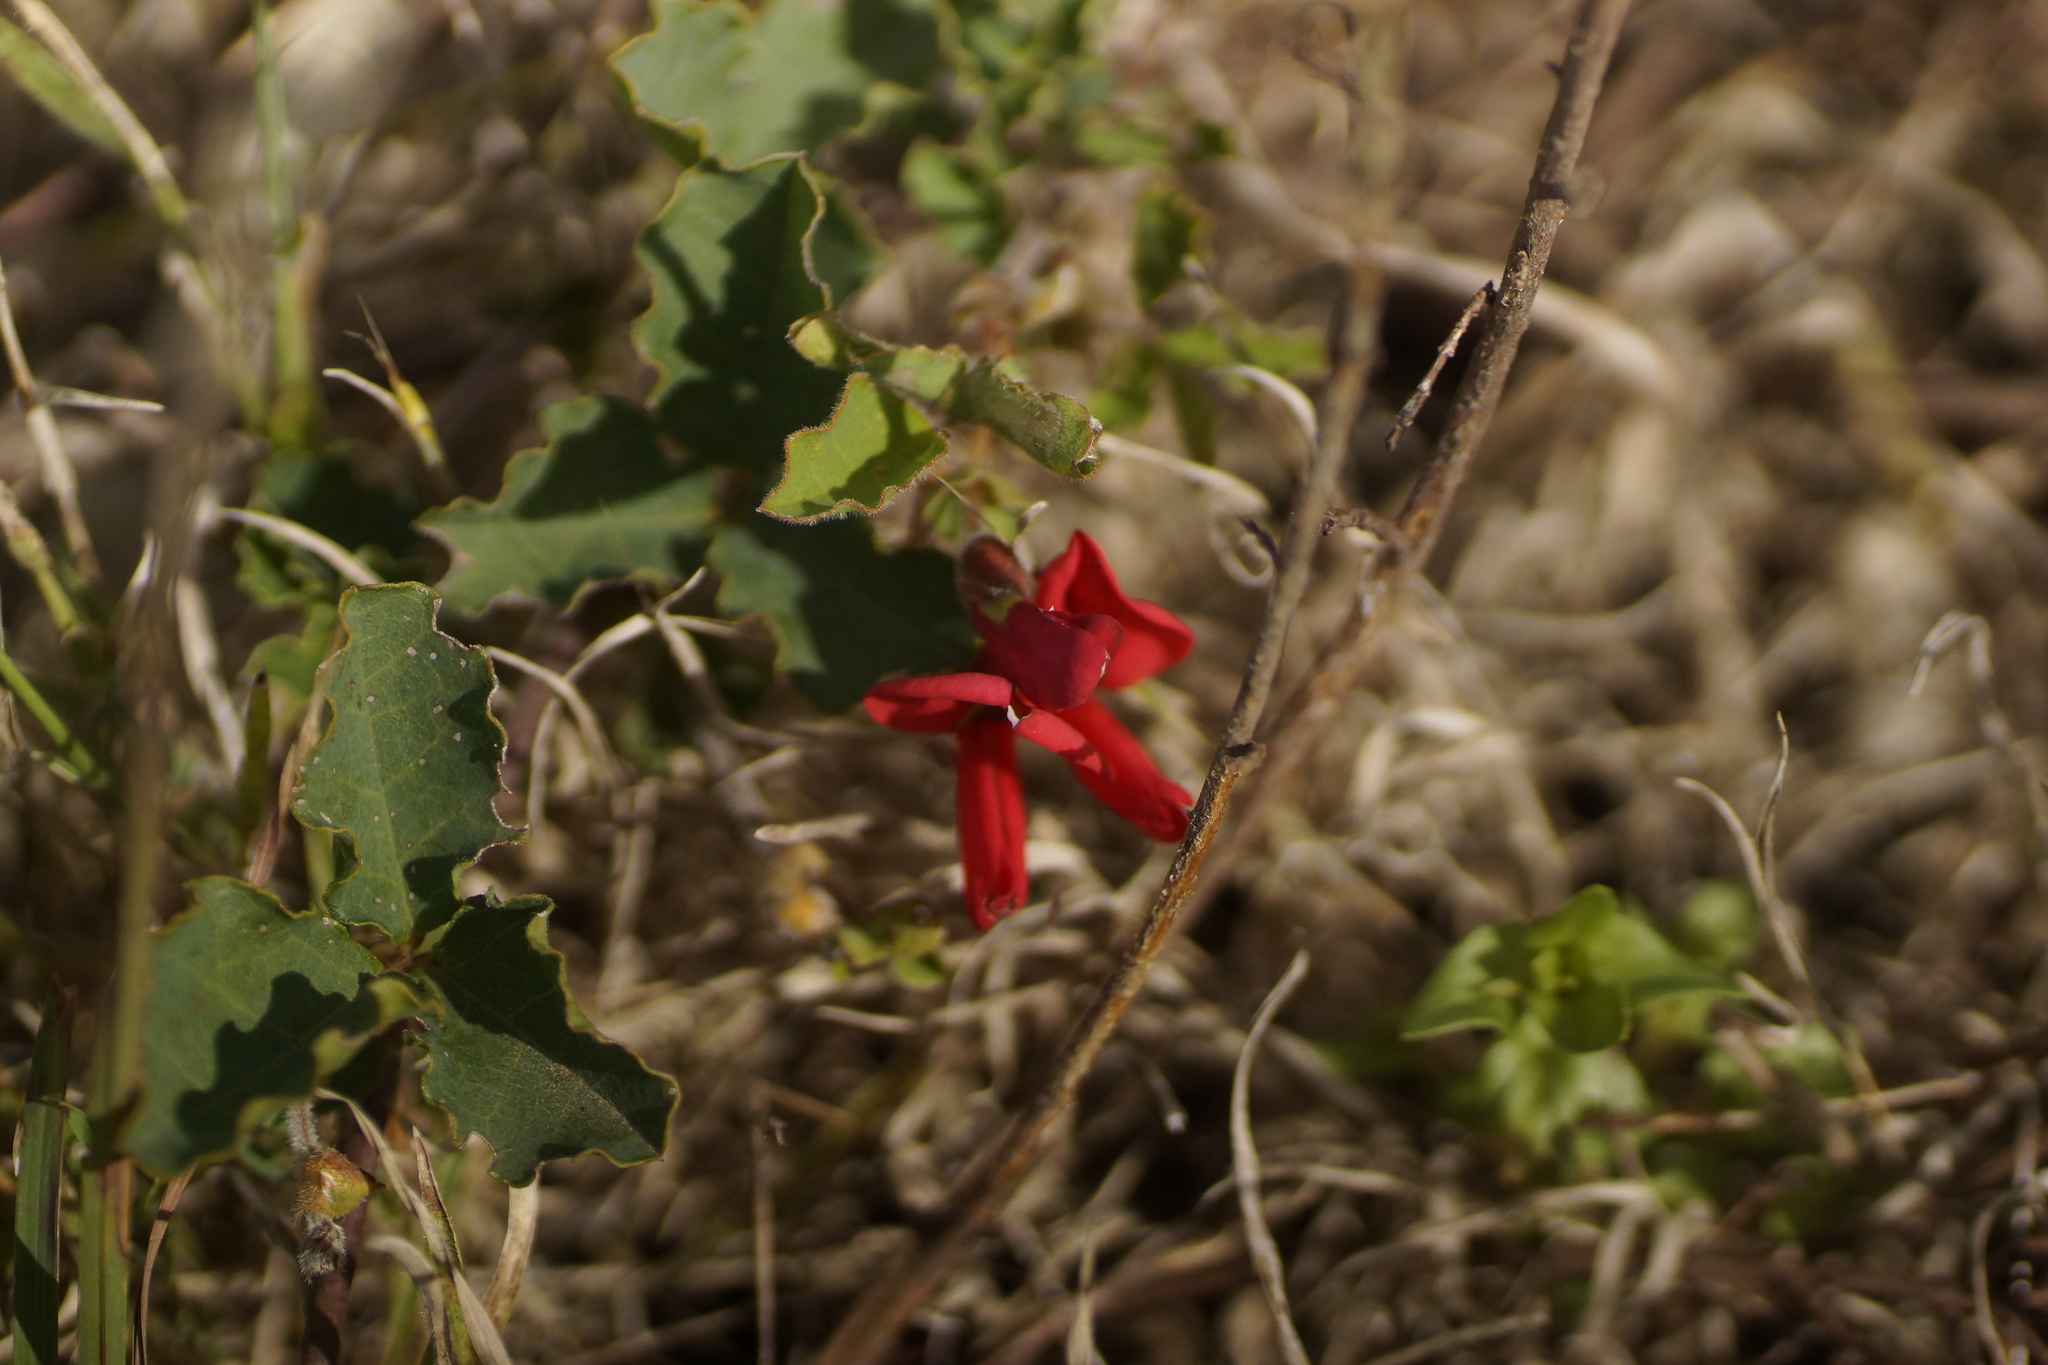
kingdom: Plantae
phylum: Tracheophyta
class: Magnoliopsida
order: Fabales
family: Fabaceae
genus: Kennedia
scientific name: Kennedia prostrata
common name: Running-postman
